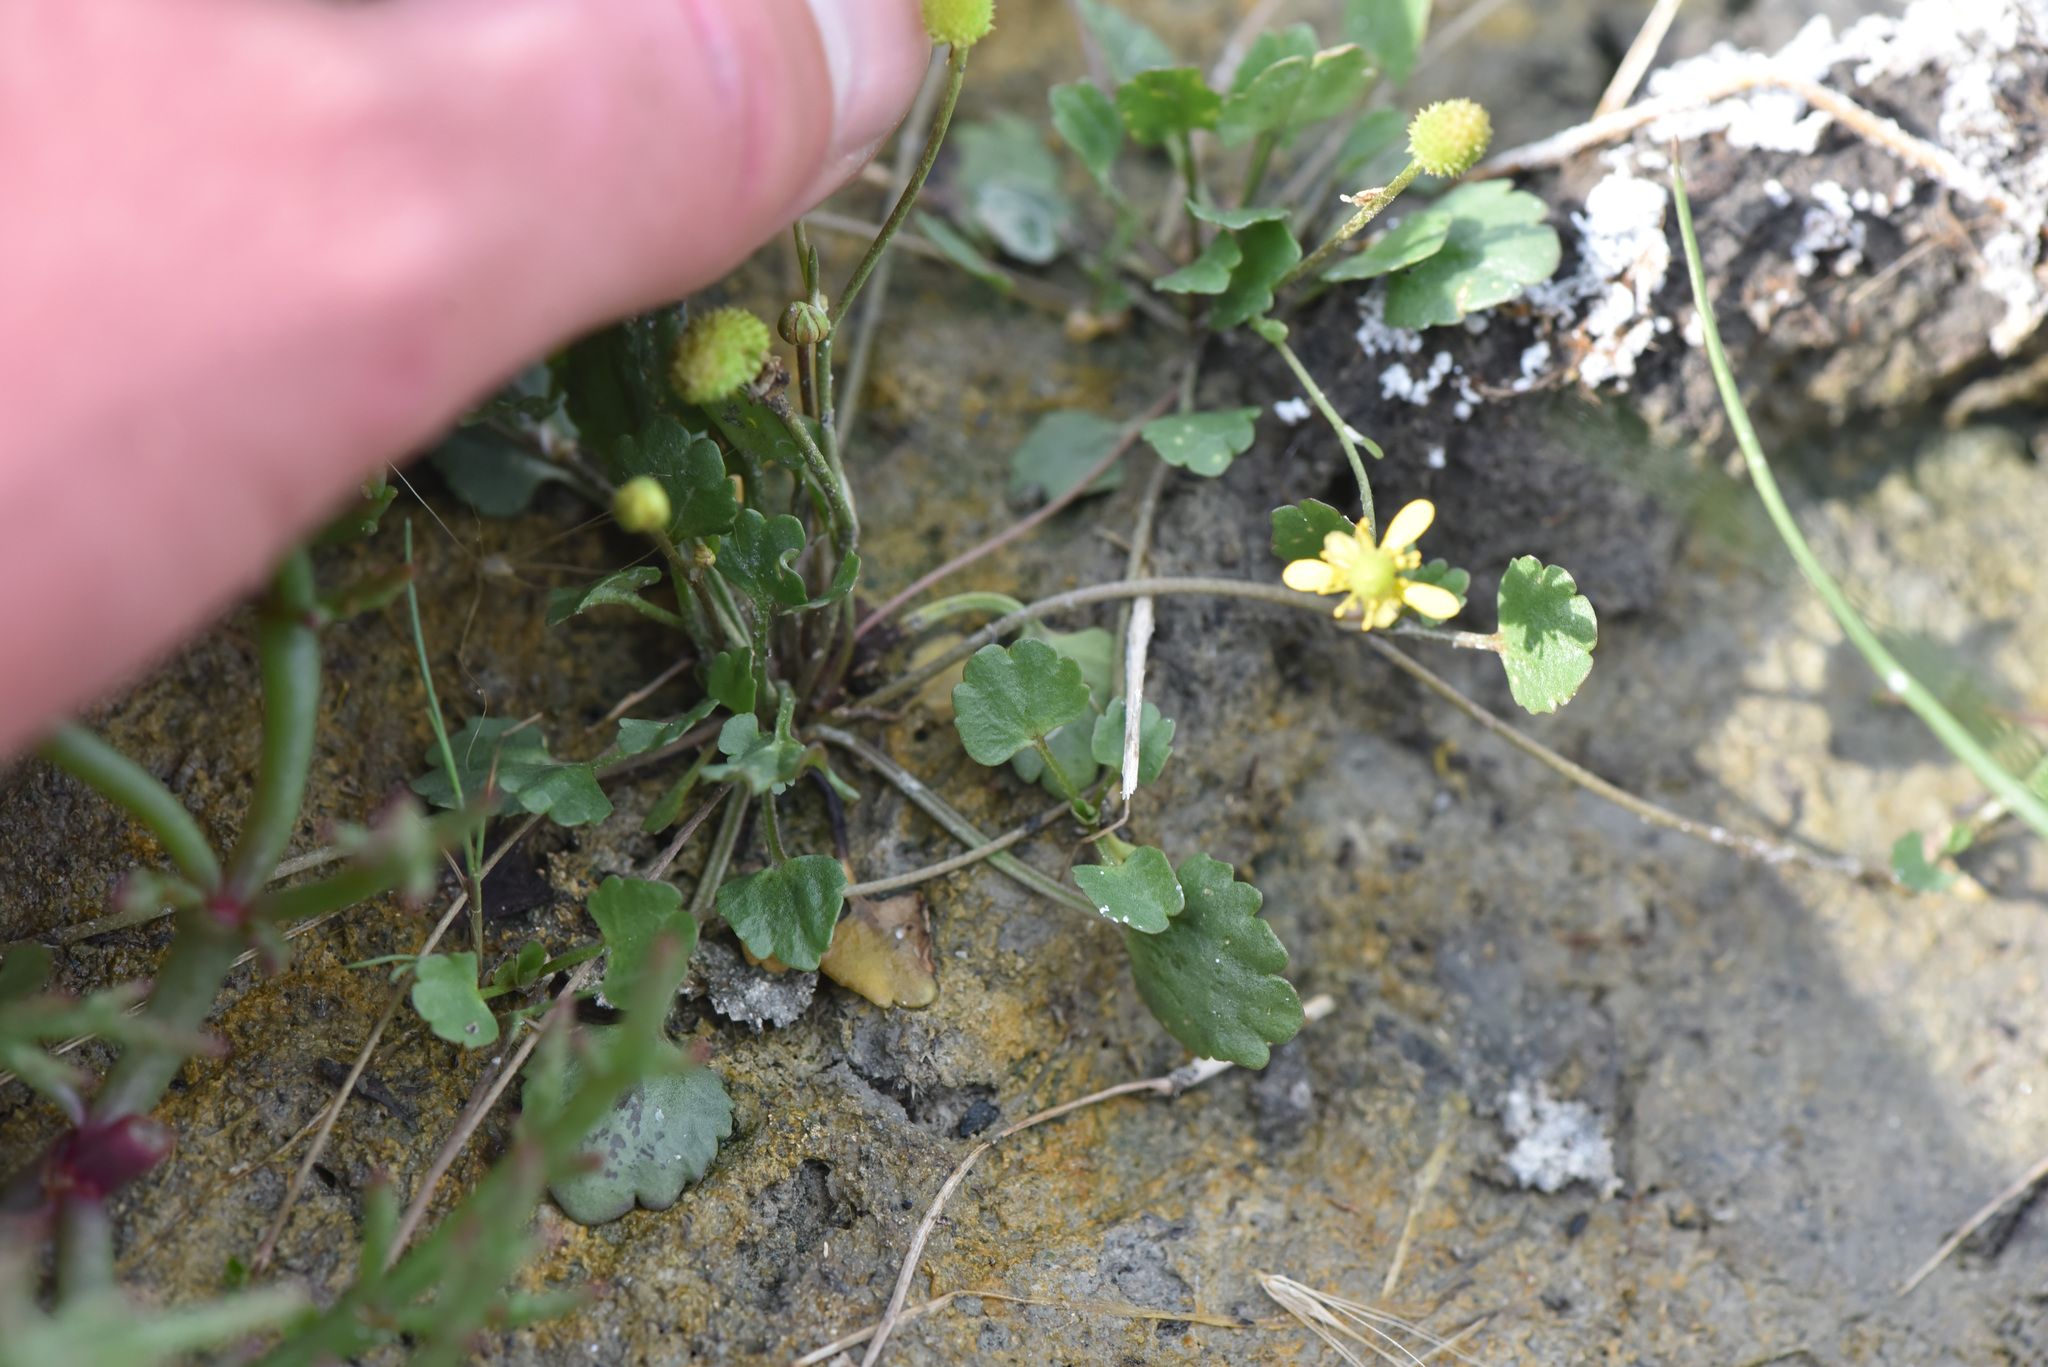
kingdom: Plantae
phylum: Tracheophyta
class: Magnoliopsida
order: Ranunculales
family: Ranunculaceae
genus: Halerpestes
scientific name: Halerpestes cymbalaria
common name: Seaside crowfoot
